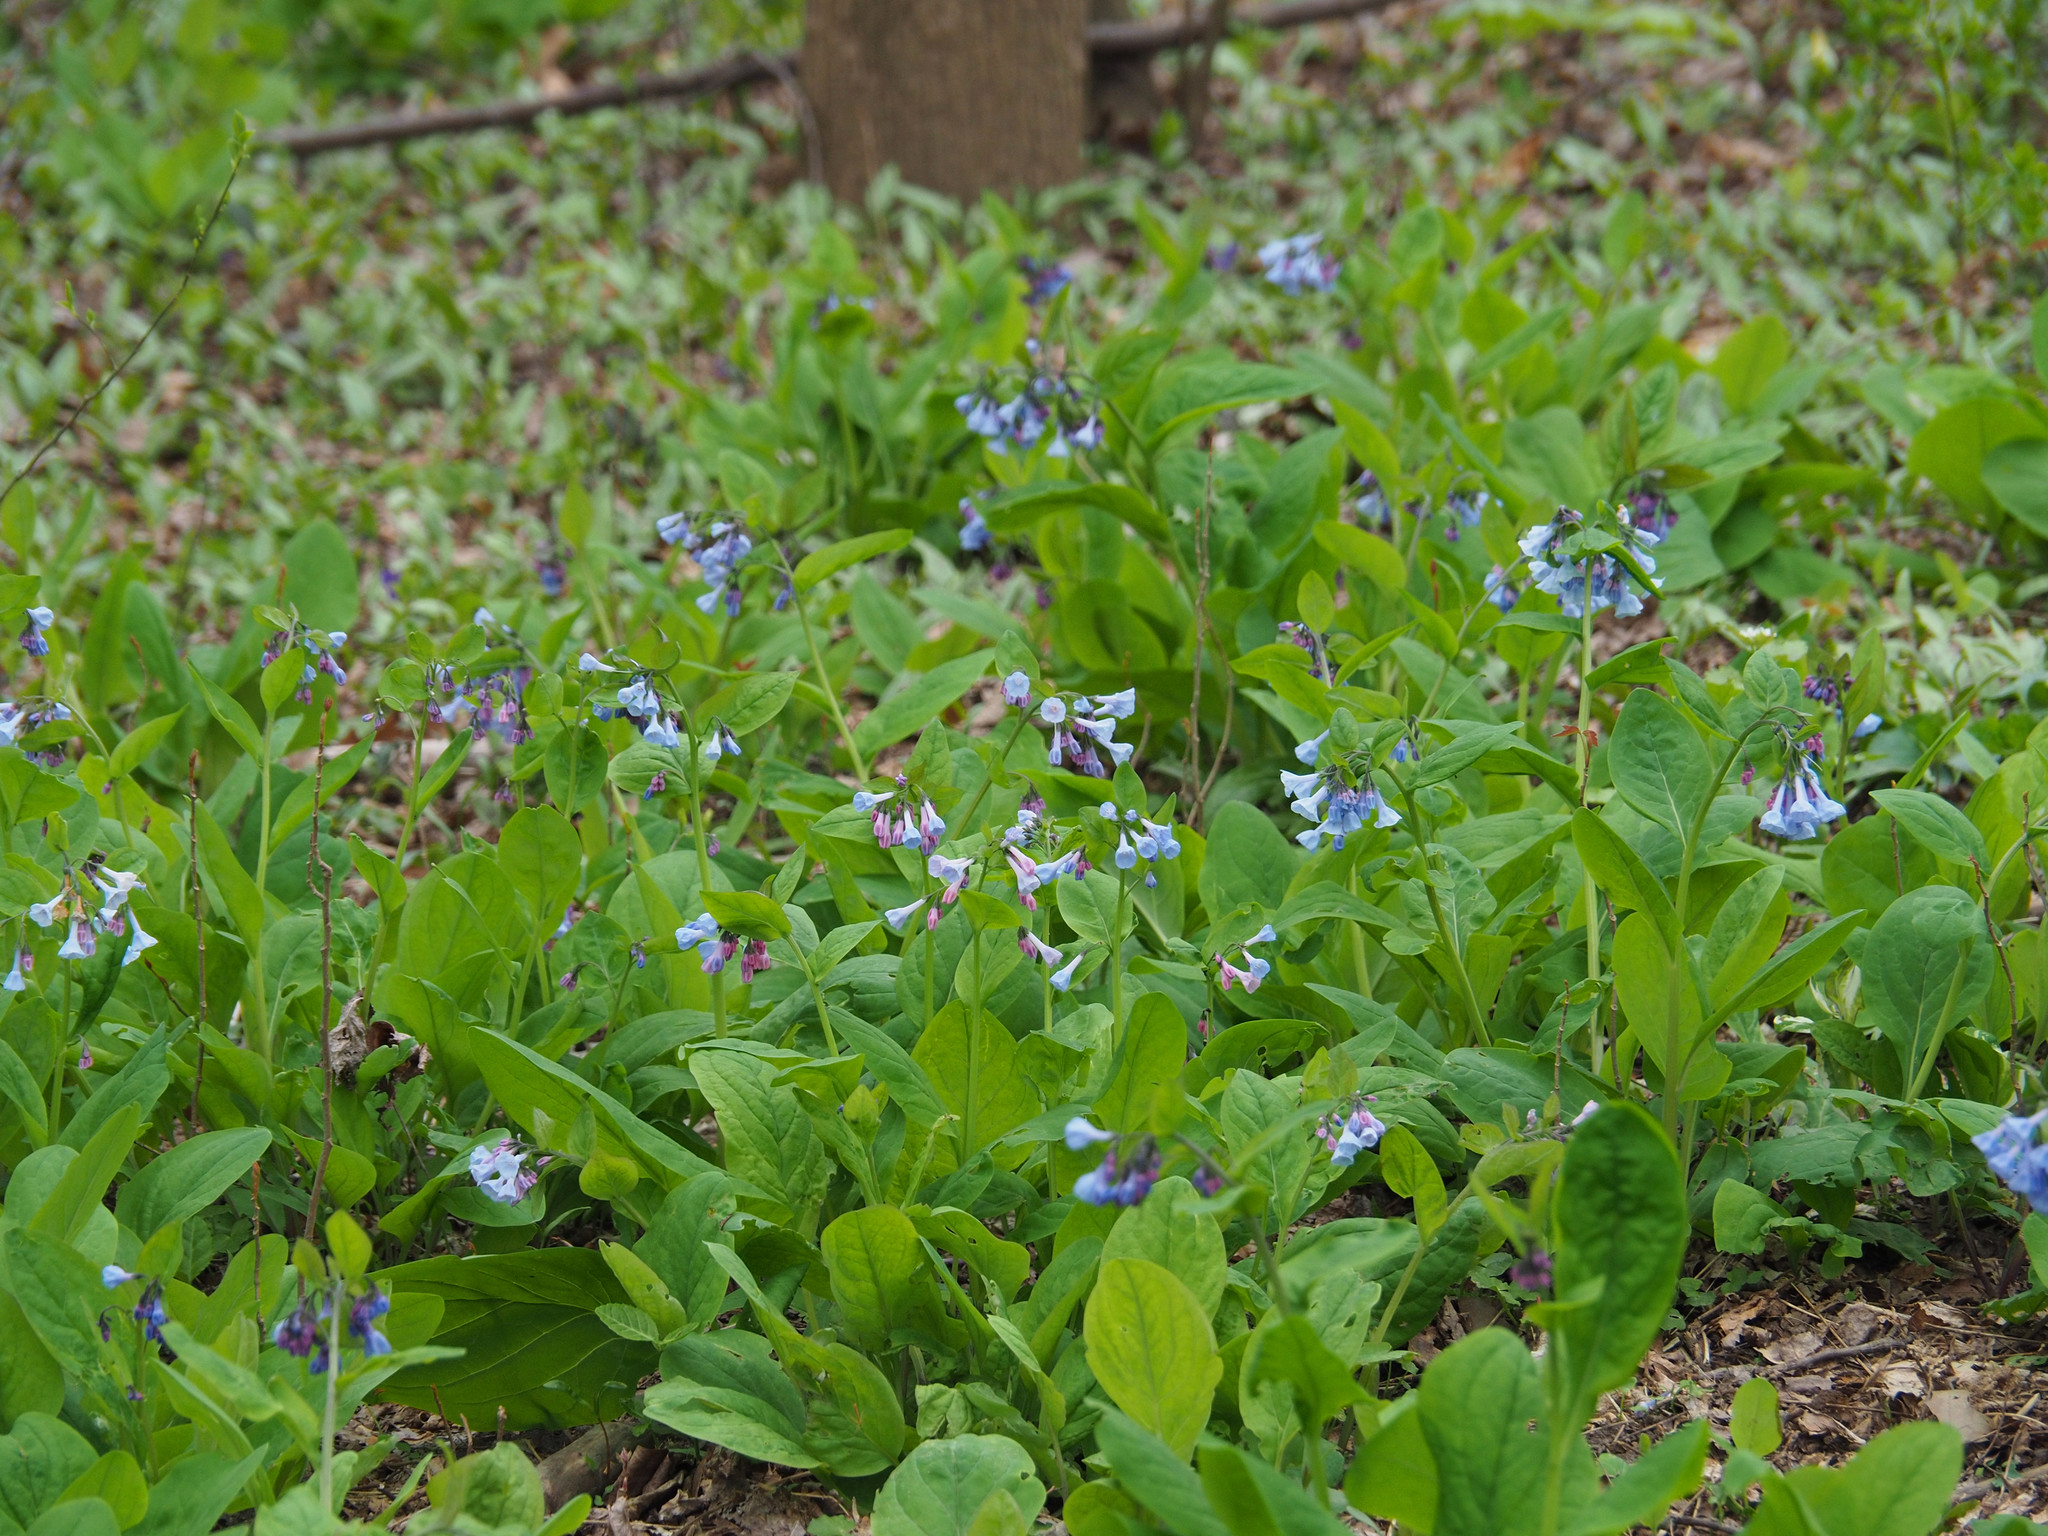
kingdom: Plantae
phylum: Tracheophyta
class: Magnoliopsida
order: Boraginales
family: Boraginaceae
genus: Mertensia
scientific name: Mertensia virginica
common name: Virginia bluebells
